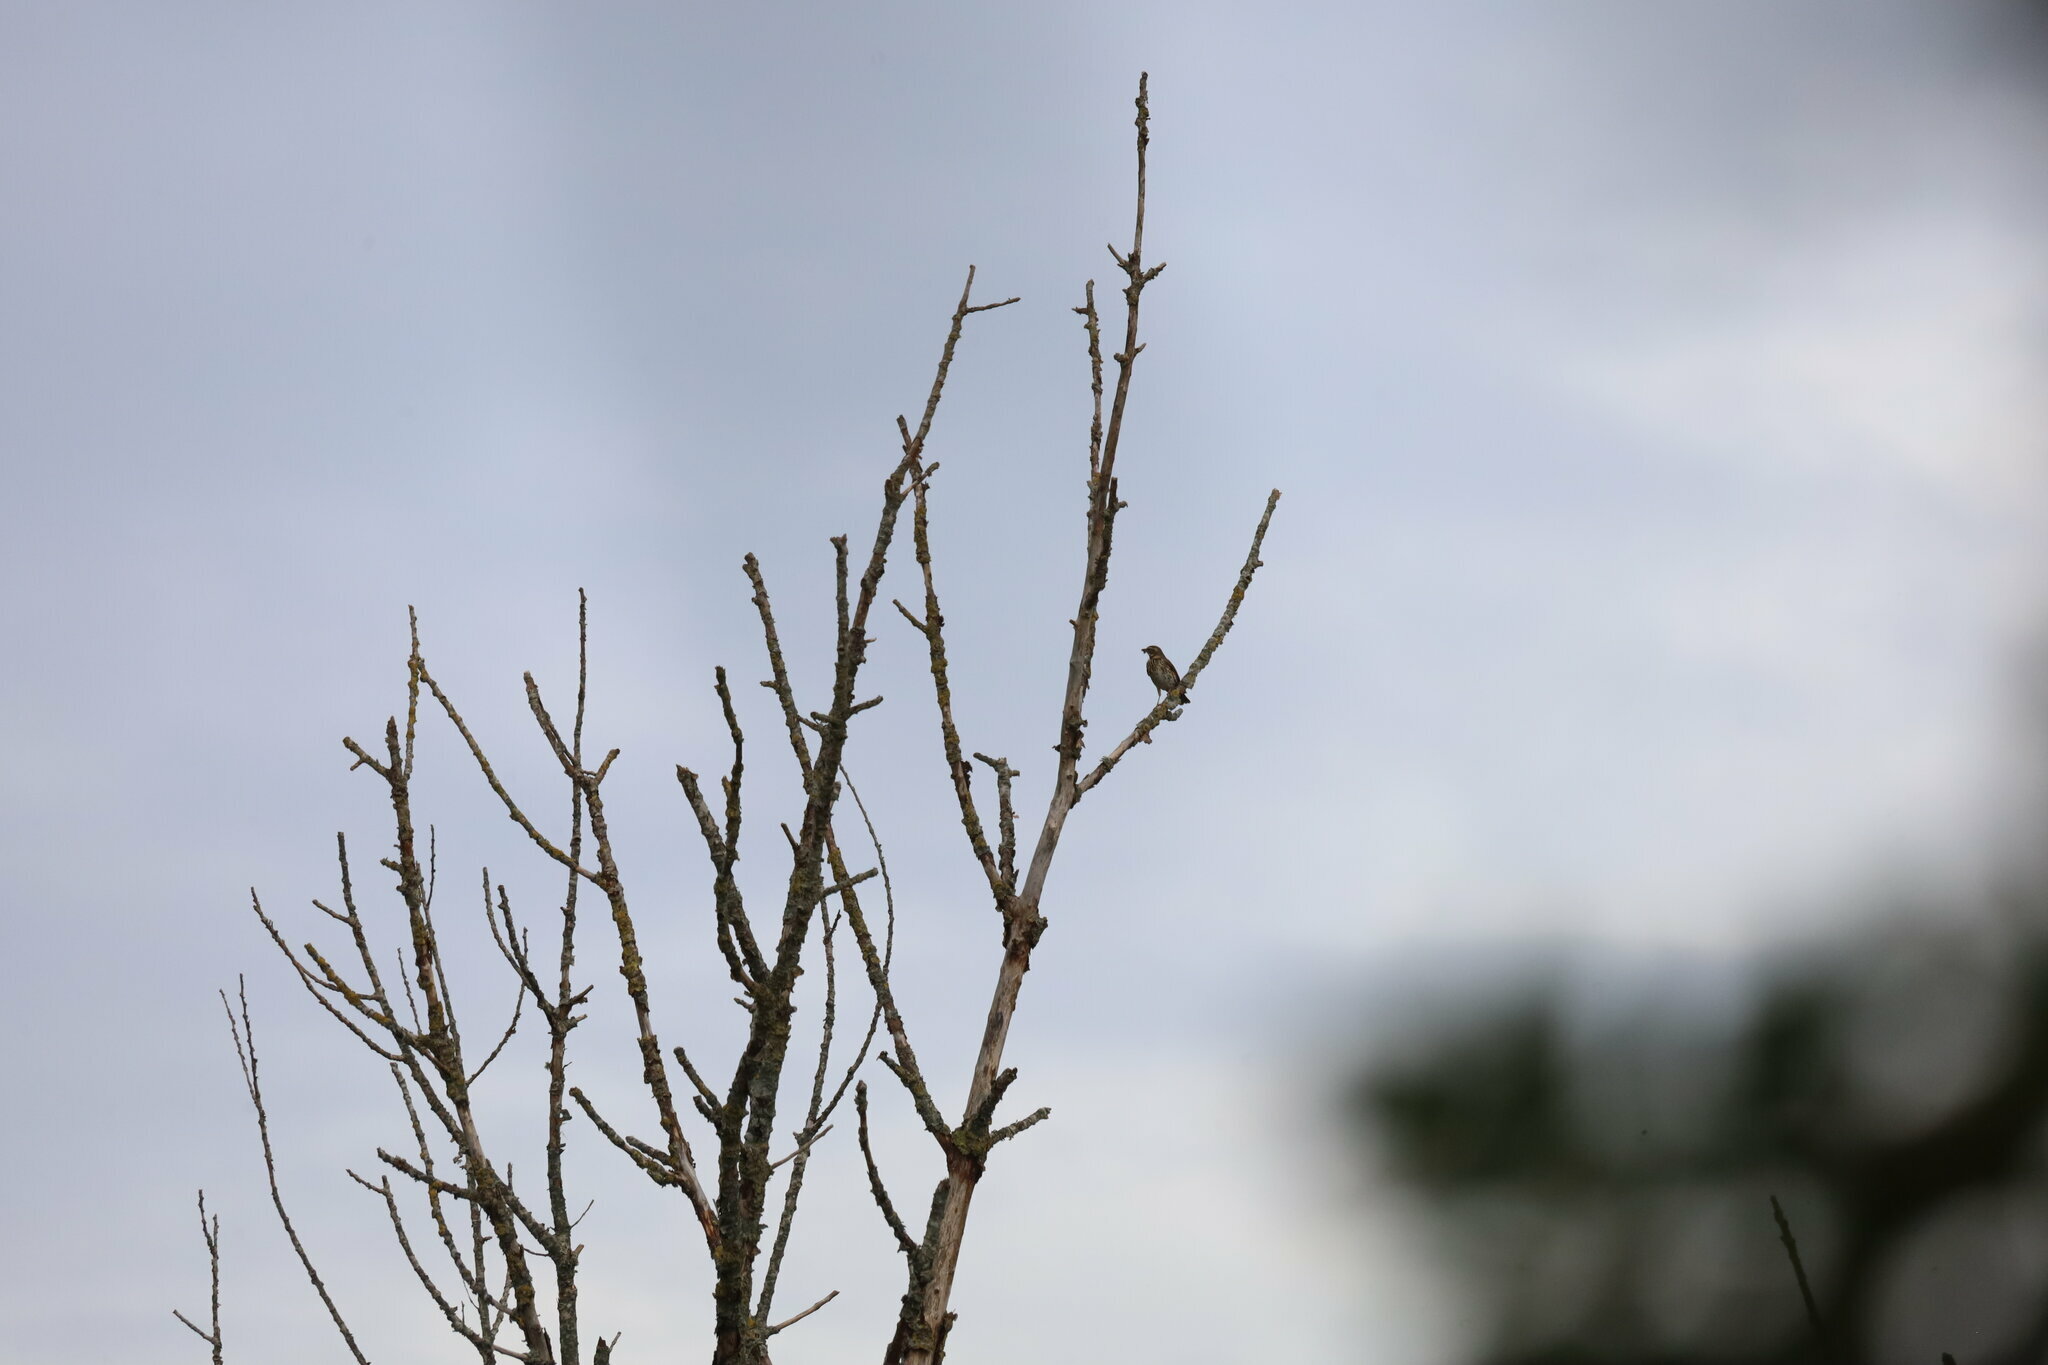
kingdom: Animalia
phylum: Chordata
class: Aves
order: Passeriformes
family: Turdidae
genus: Turdus
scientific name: Turdus iliacus
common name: Redwing
